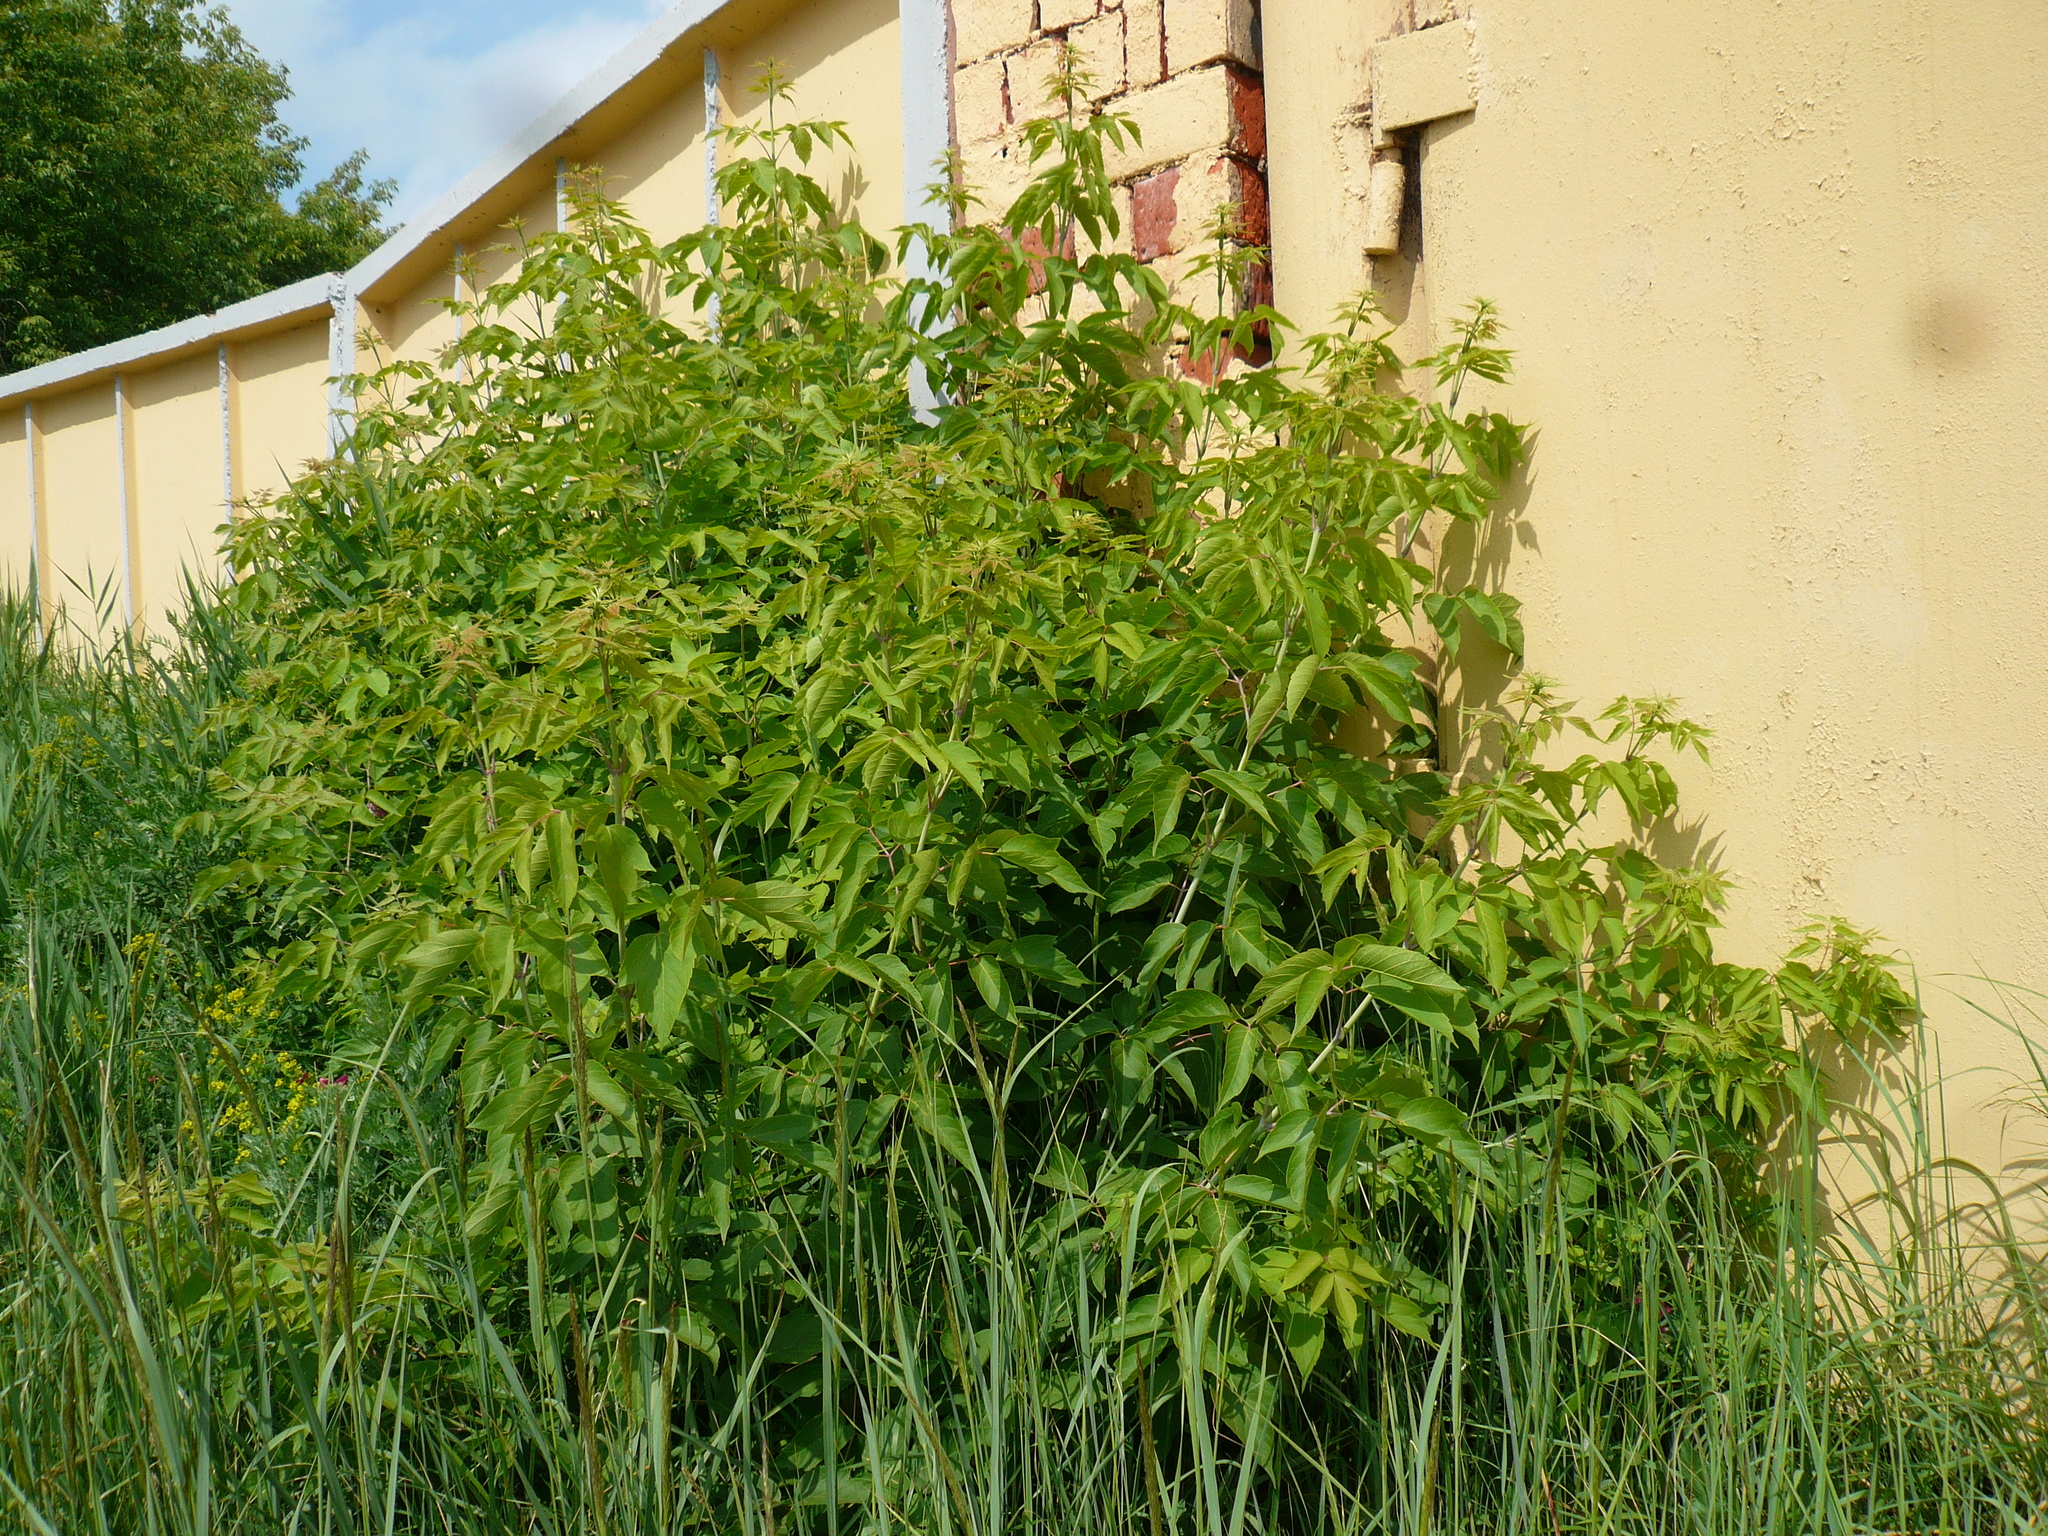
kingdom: Plantae
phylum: Tracheophyta
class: Magnoliopsida
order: Sapindales
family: Sapindaceae
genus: Acer
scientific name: Acer negundo
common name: Ashleaf maple
